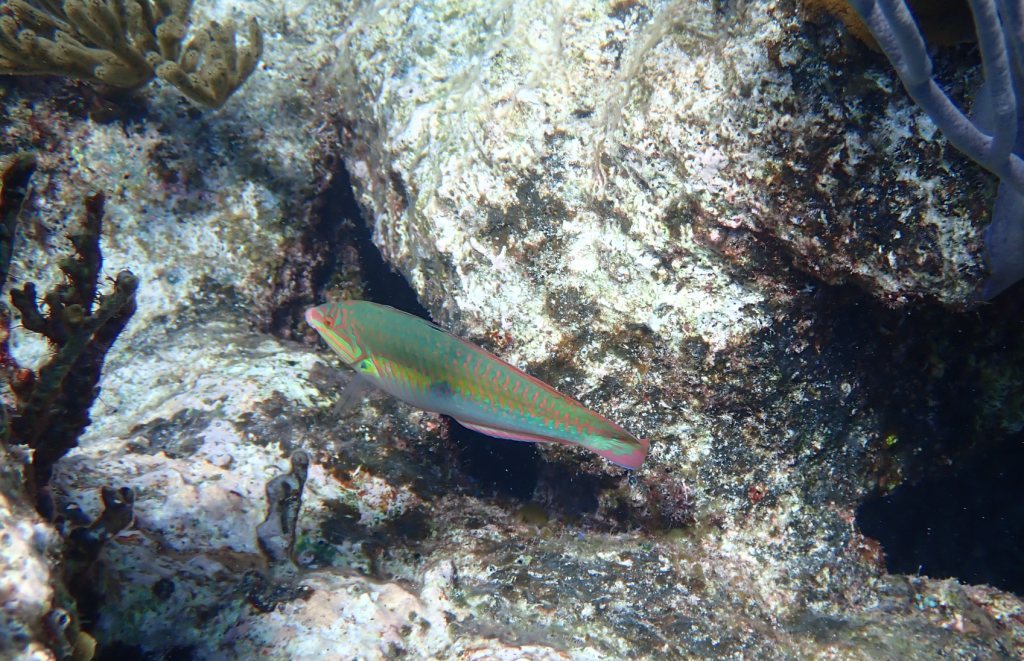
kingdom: Animalia
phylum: Chordata
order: Perciformes
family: Labridae
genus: Halichoeres
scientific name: Halichoeres maculipinna
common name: Clown wrasse
